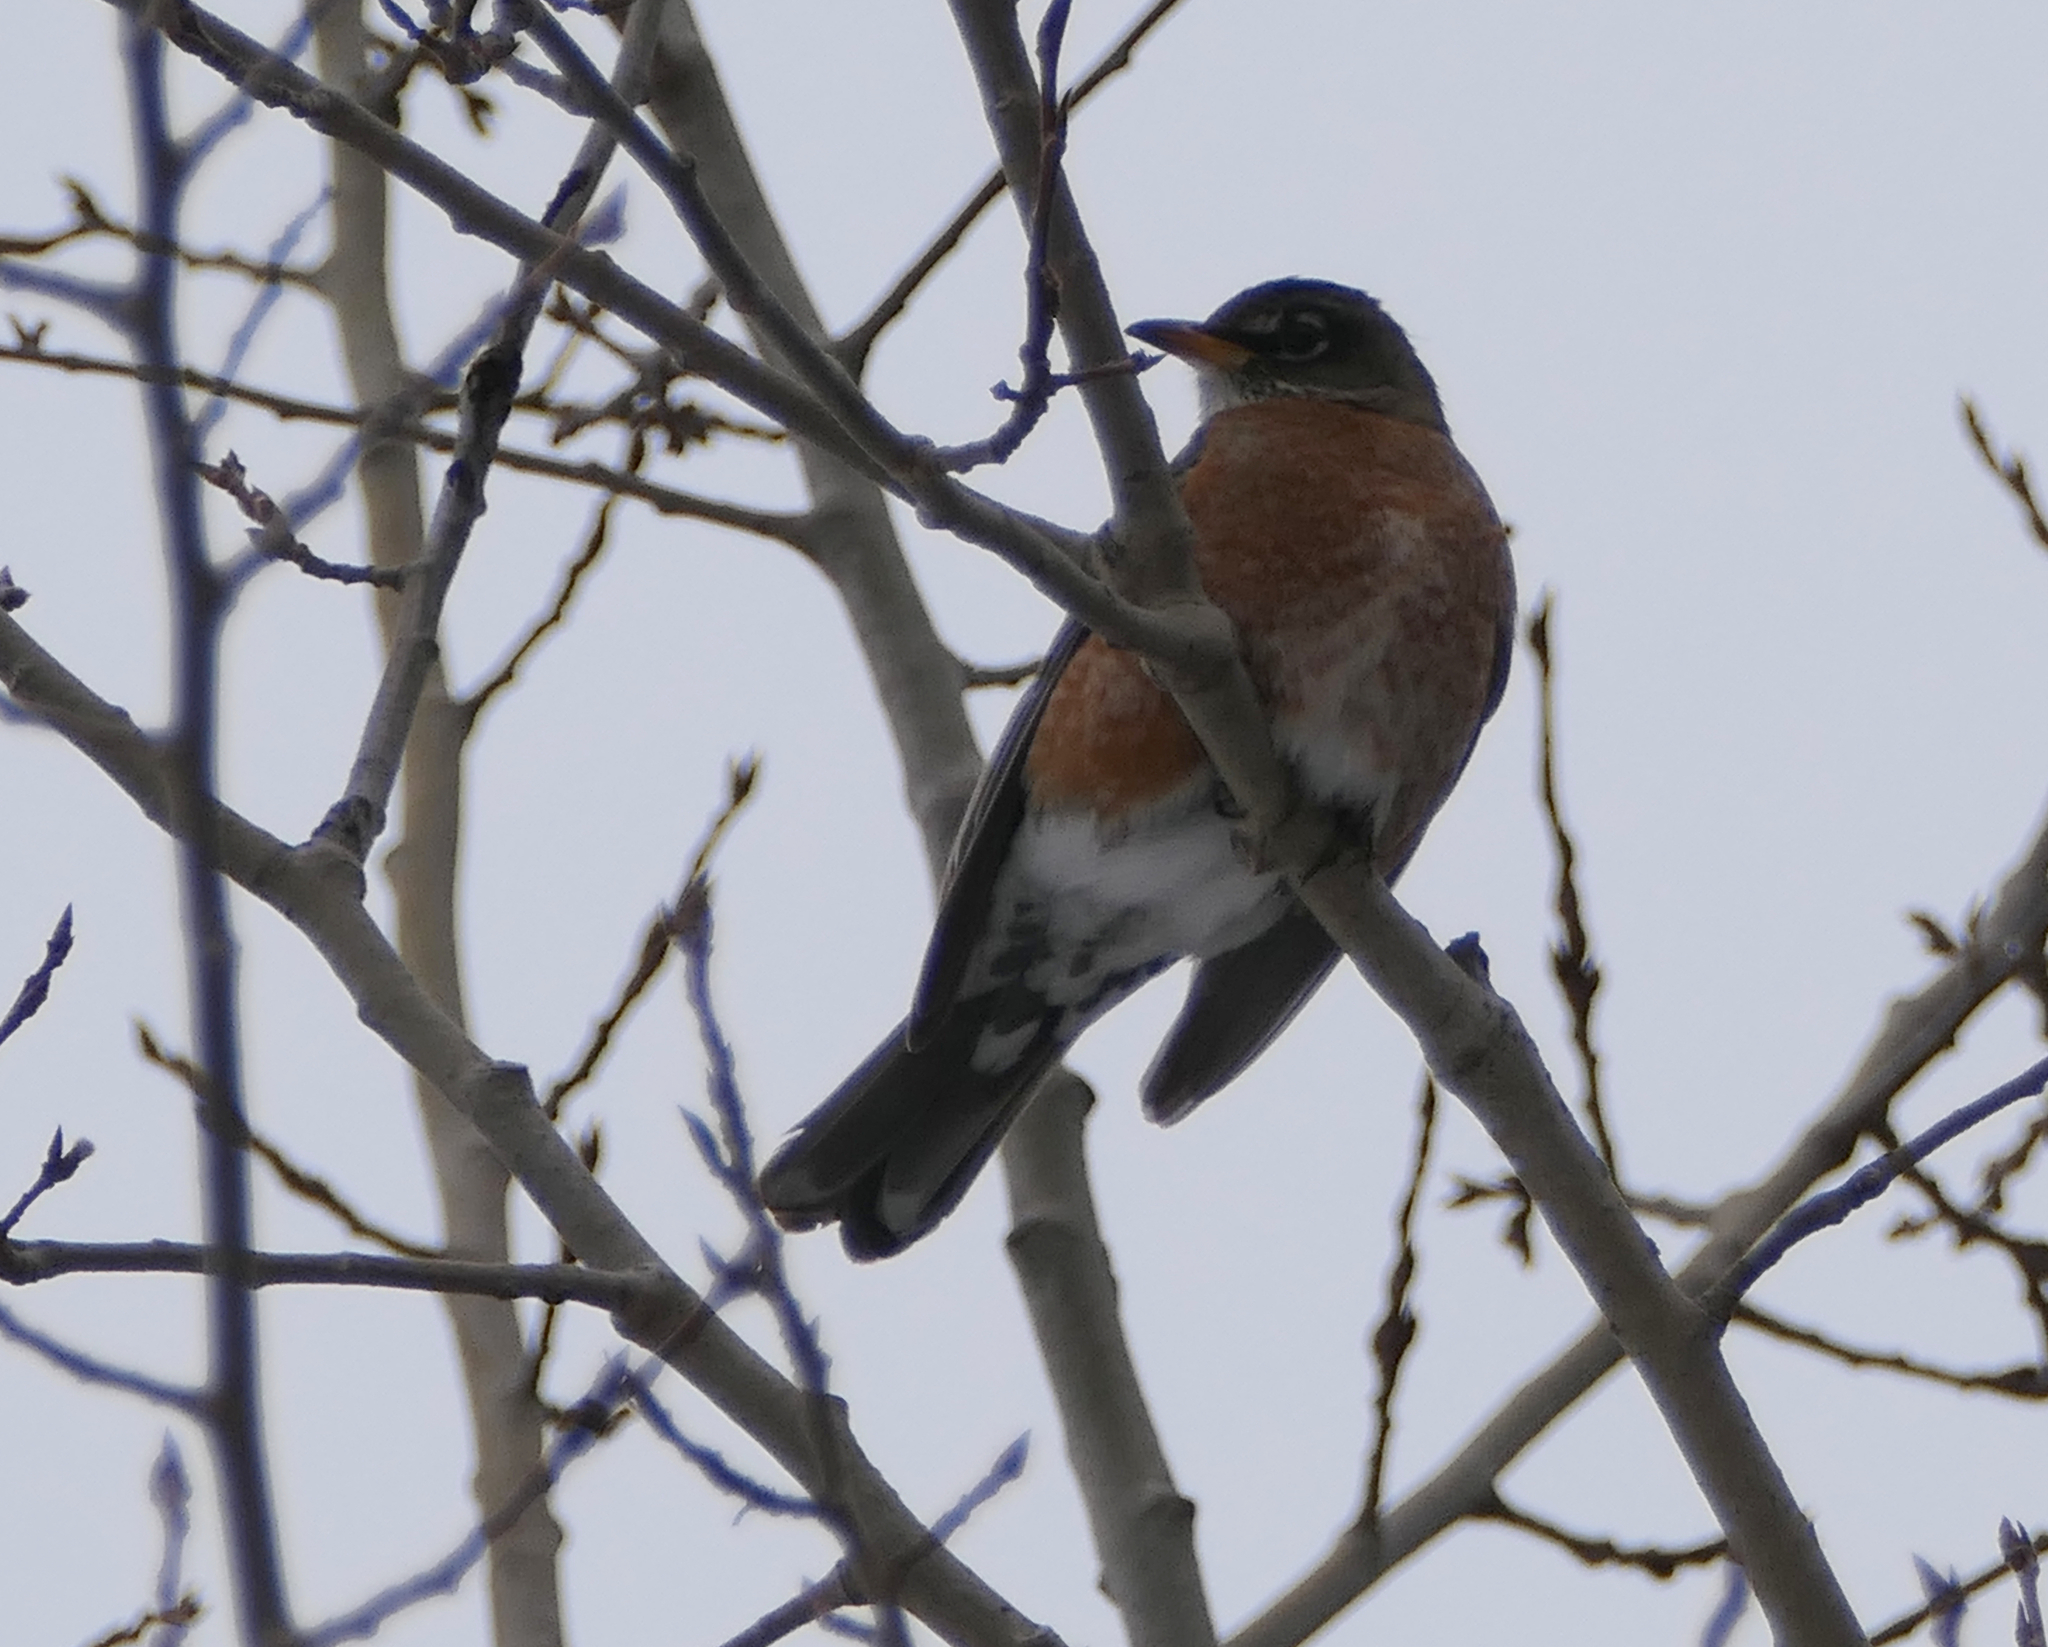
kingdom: Animalia
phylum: Chordata
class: Aves
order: Passeriformes
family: Turdidae
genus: Turdus
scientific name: Turdus migratorius
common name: American robin
